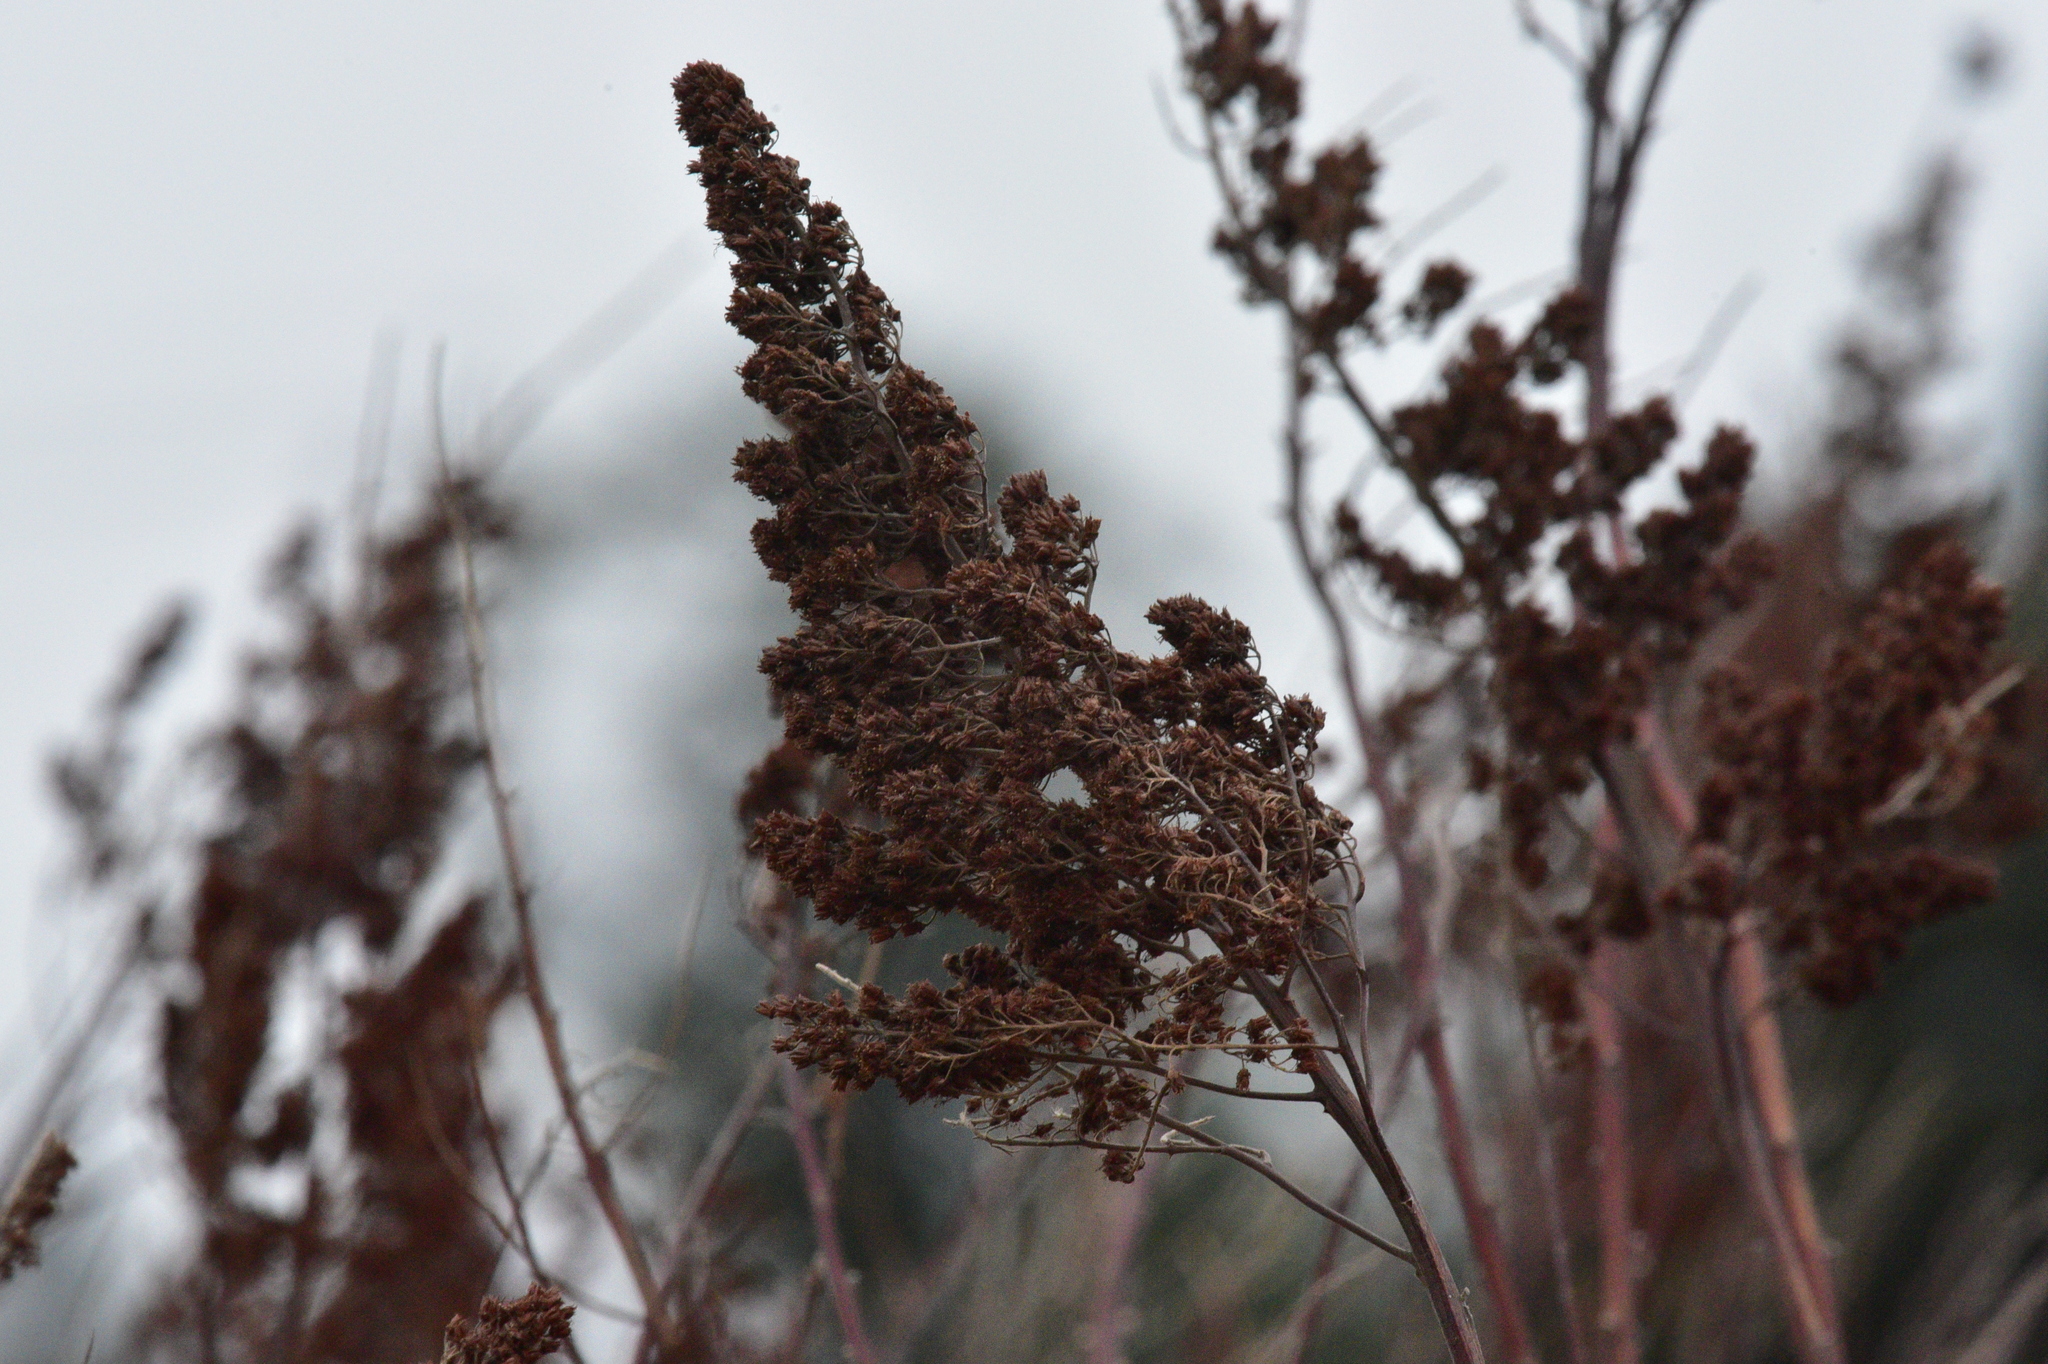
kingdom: Plantae
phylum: Tracheophyta
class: Magnoliopsida
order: Rosales
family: Rosaceae
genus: Spiraea
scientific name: Spiraea douglasii
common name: Steeplebush
